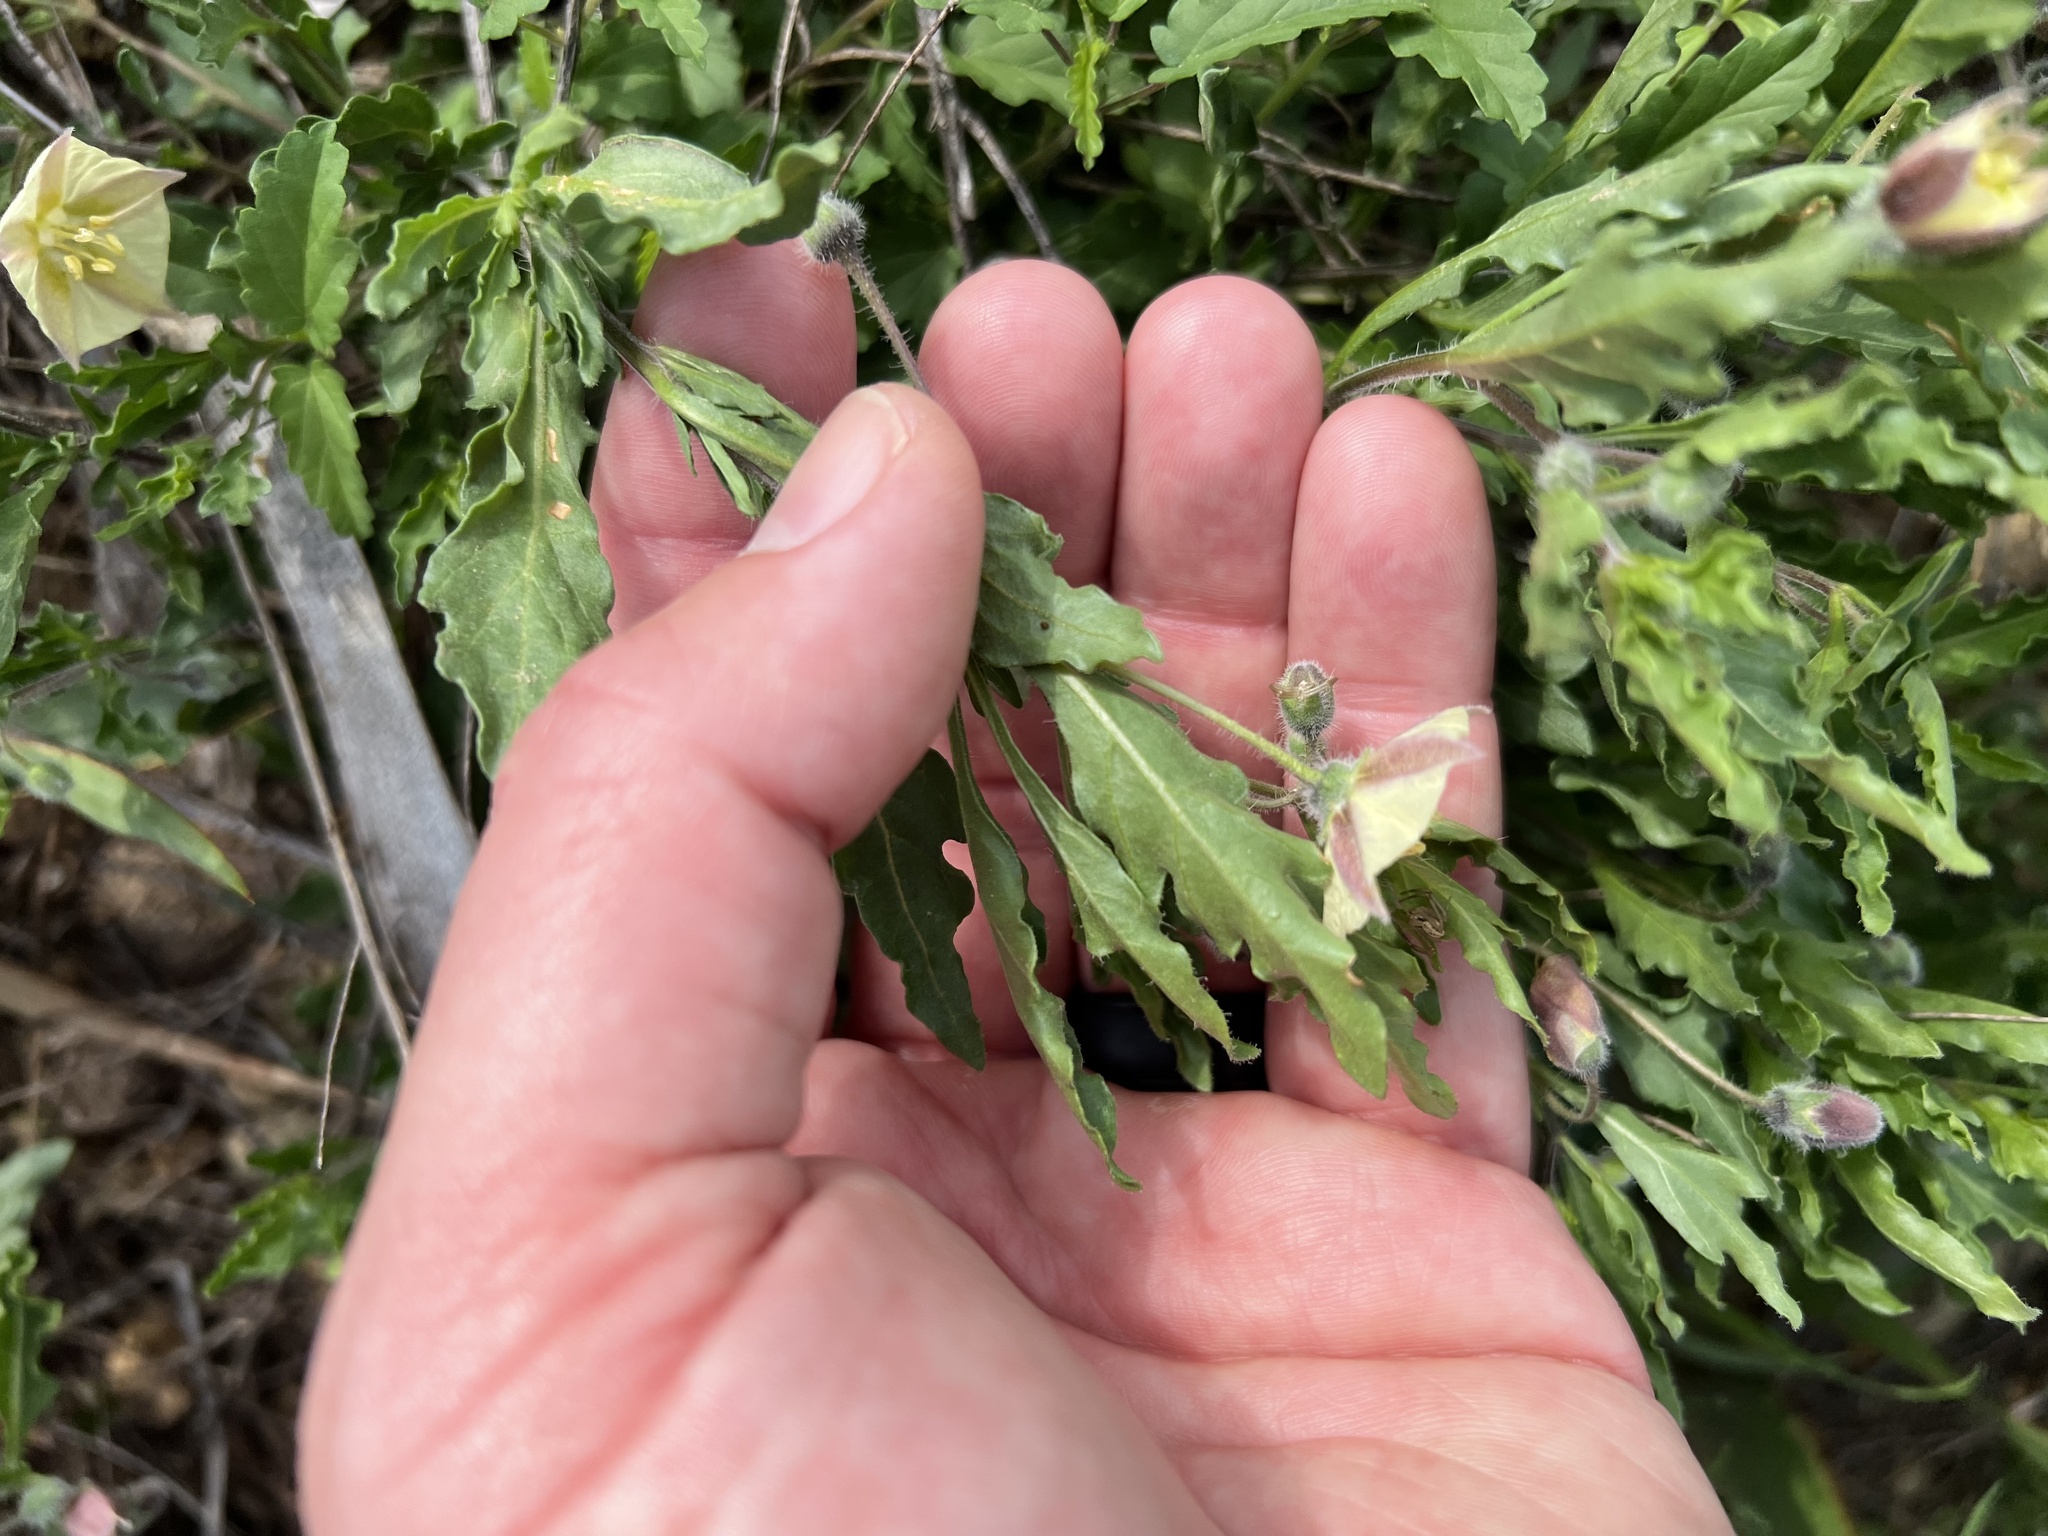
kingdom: Plantae
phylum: Tracheophyta
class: Magnoliopsida
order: Solanales
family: Solanaceae
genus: Chamaesaracha
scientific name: Chamaesaracha sordida
